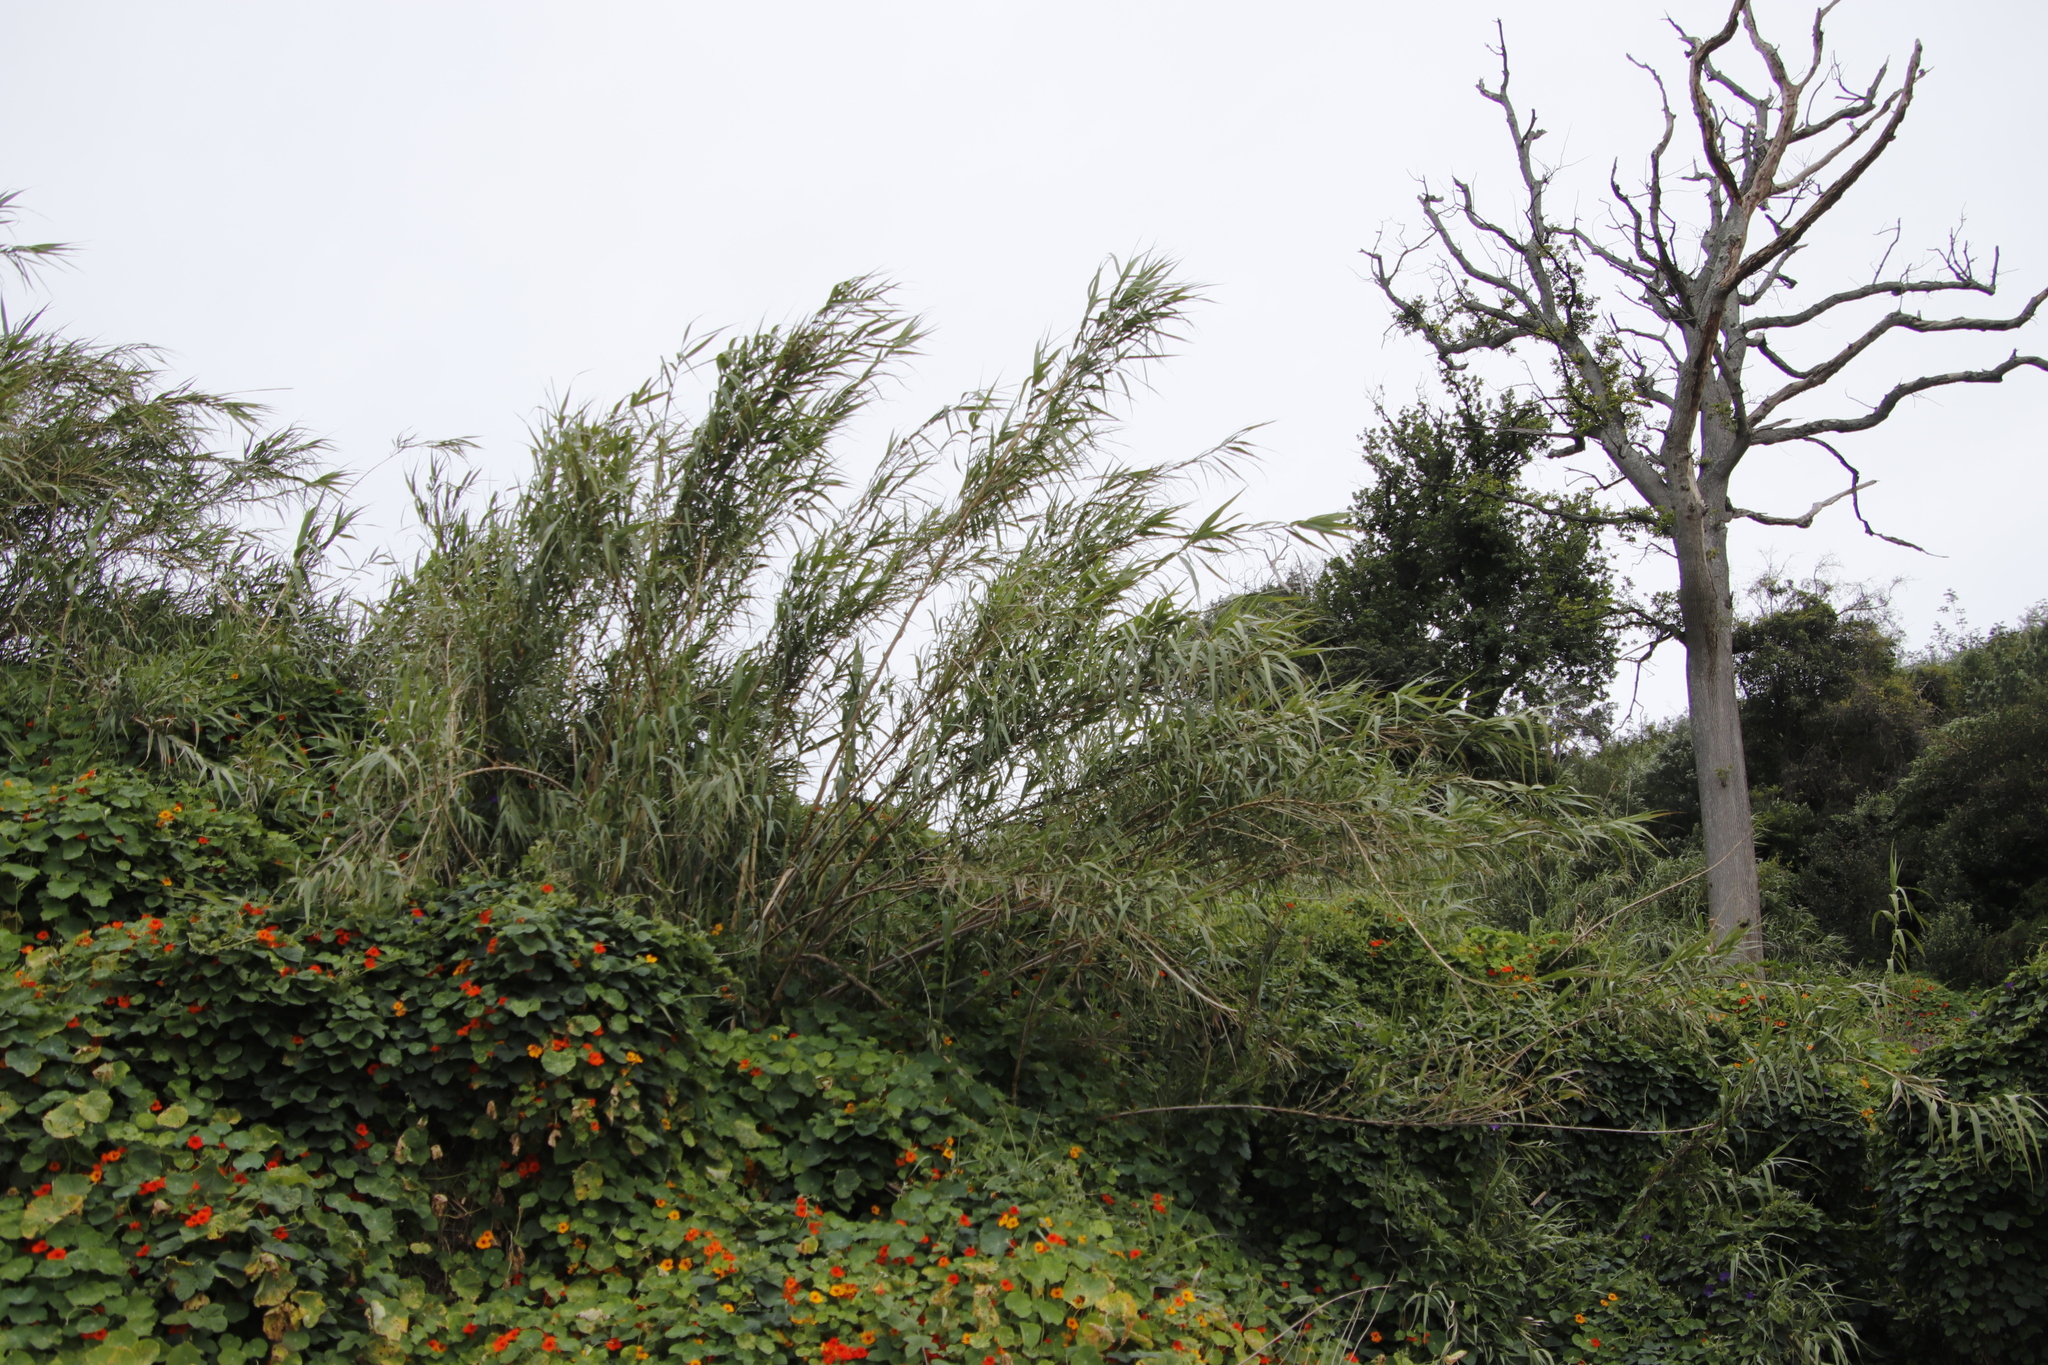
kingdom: Plantae
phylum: Tracheophyta
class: Liliopsida
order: Poales
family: Poaceae
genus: Arundo
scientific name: Arundo donax
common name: Giant reed
